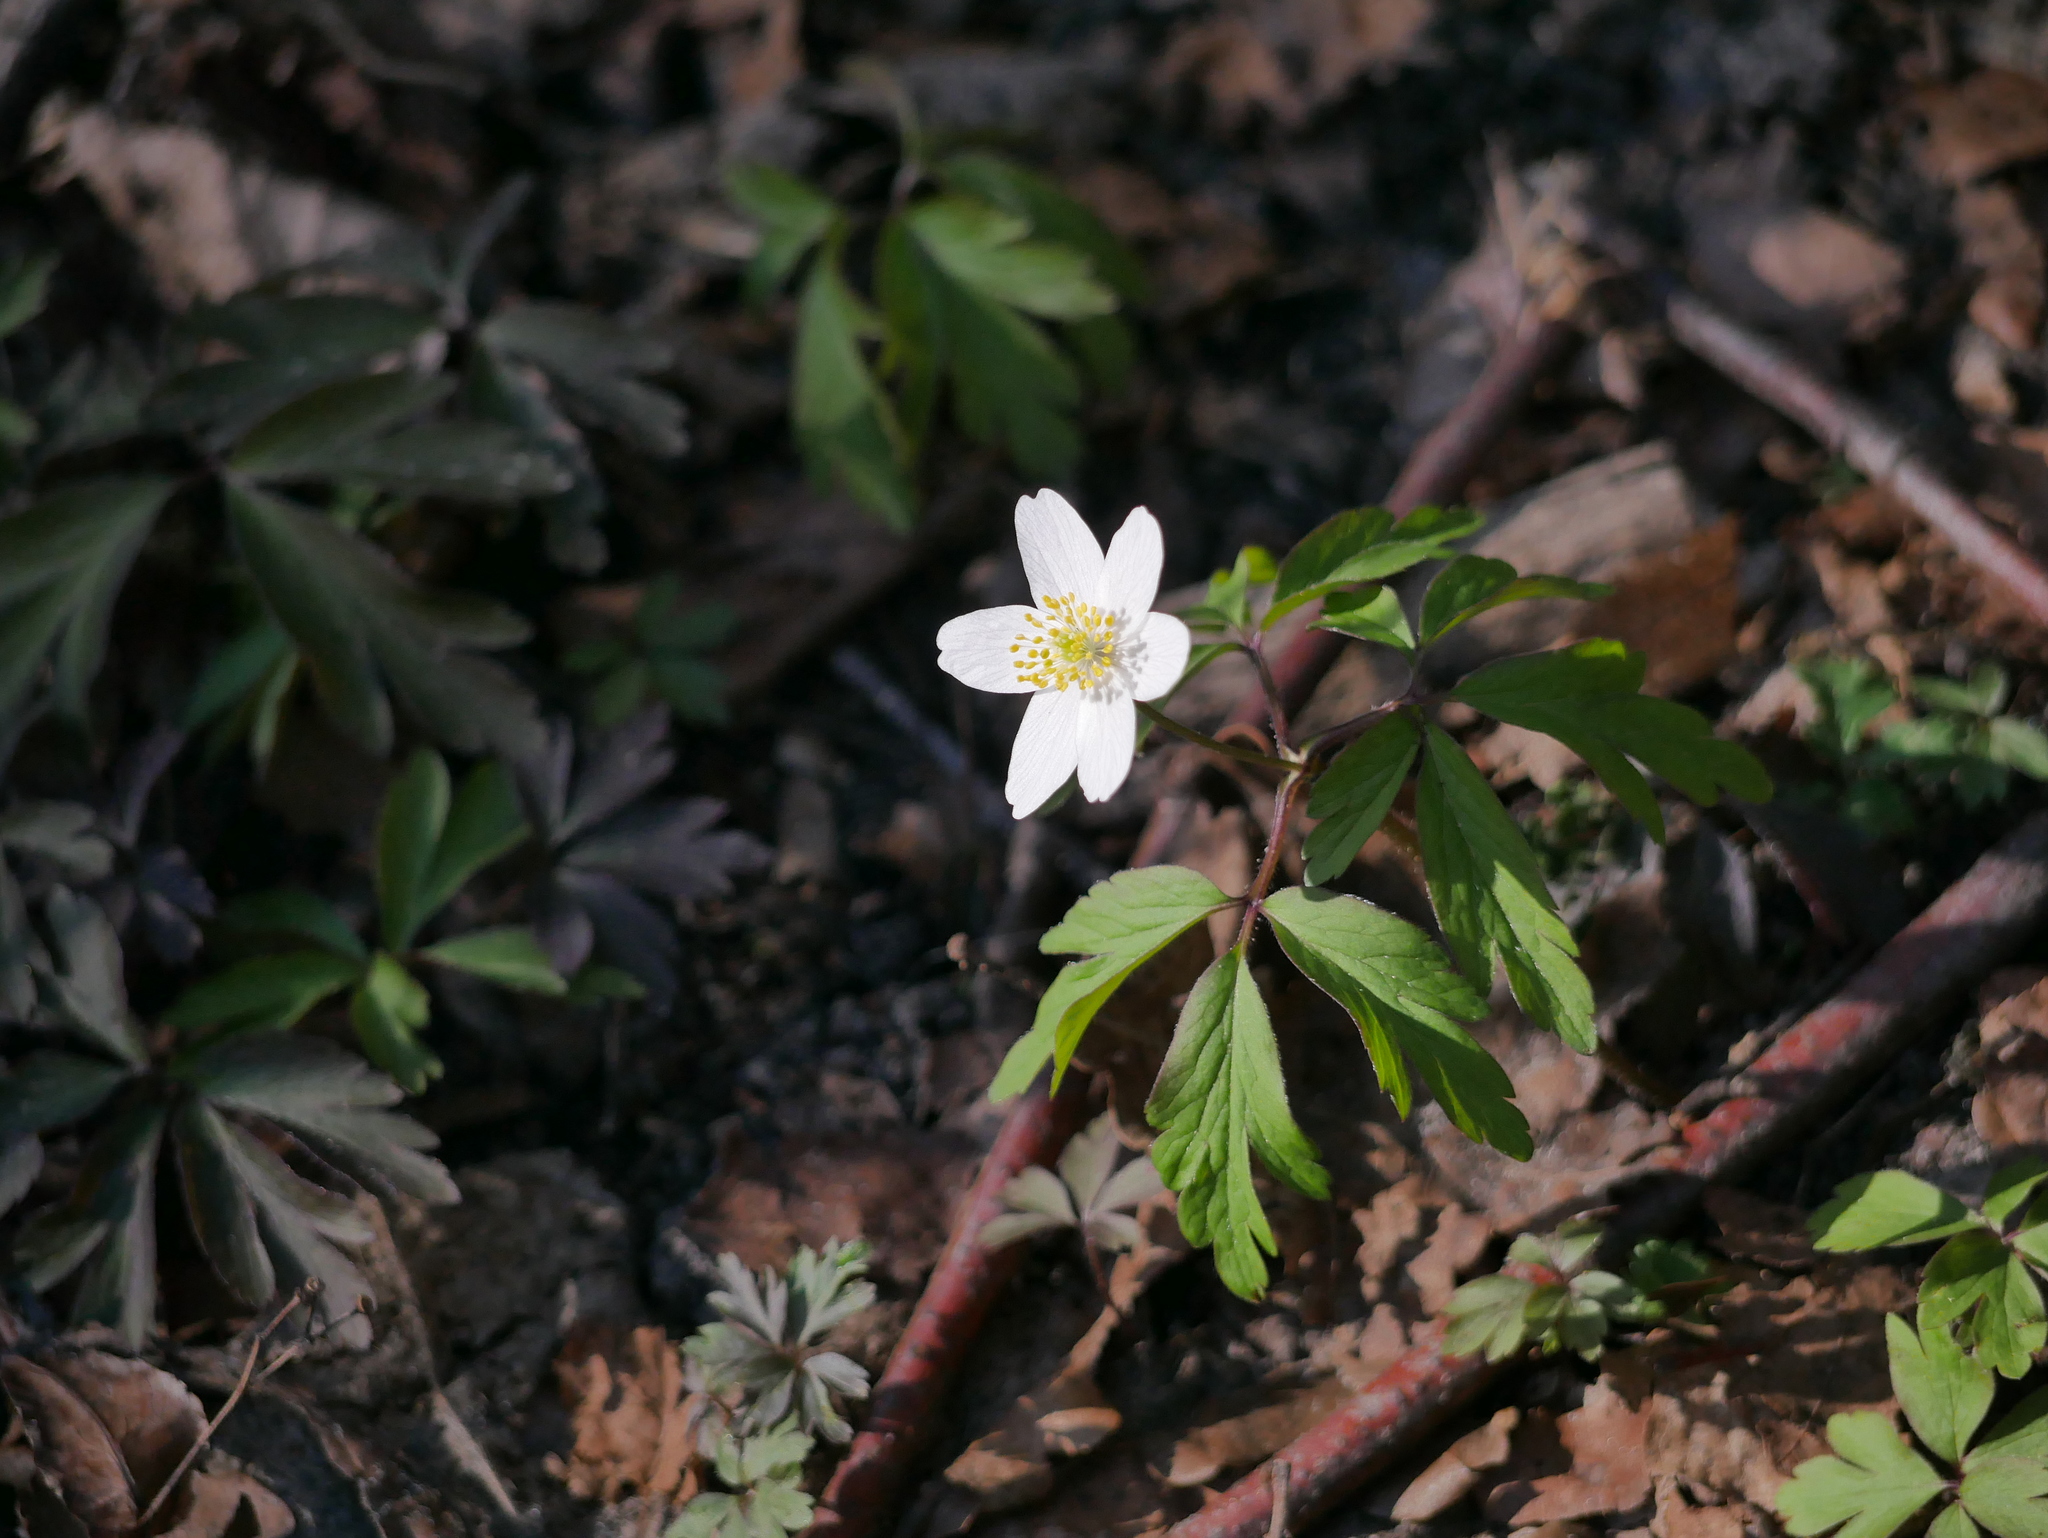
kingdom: Plantae
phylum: Tracheophyta
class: Magnoliopsida
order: Ranunculales
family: Ranunculaceae
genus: Anemone
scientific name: Anemone nemorosa
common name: Wood anemone
